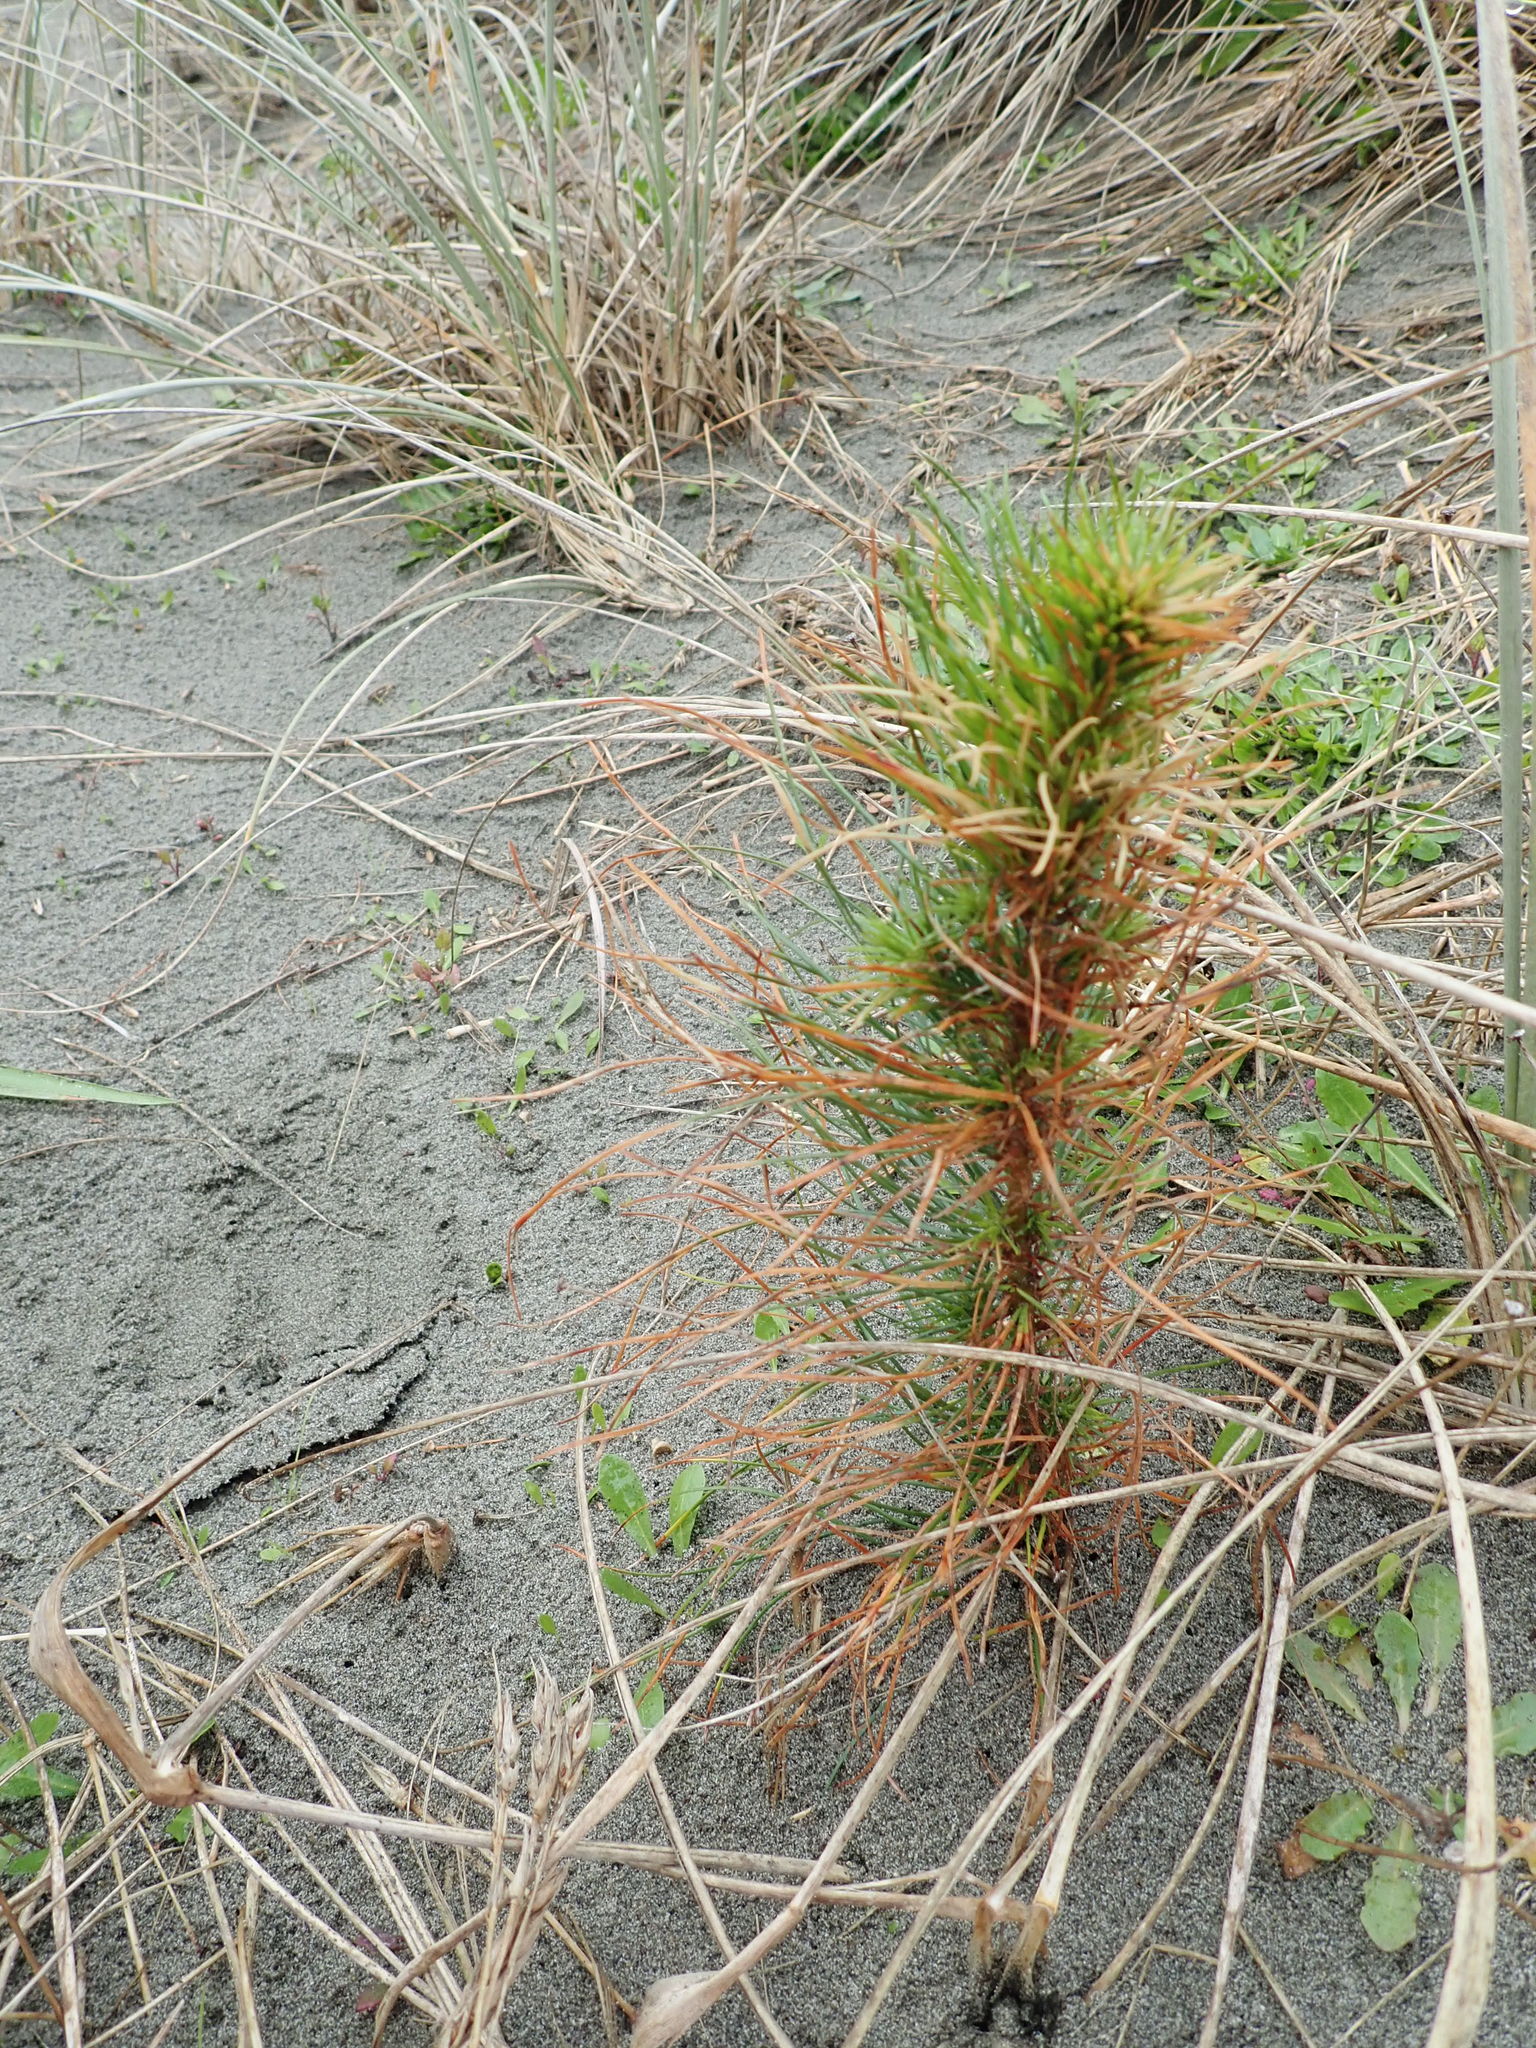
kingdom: Plantae
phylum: Tracheophyta
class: Pinopsida
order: Pinales
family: Pinaceae
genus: Pinus
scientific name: Pinus radiata
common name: Monterey pine
